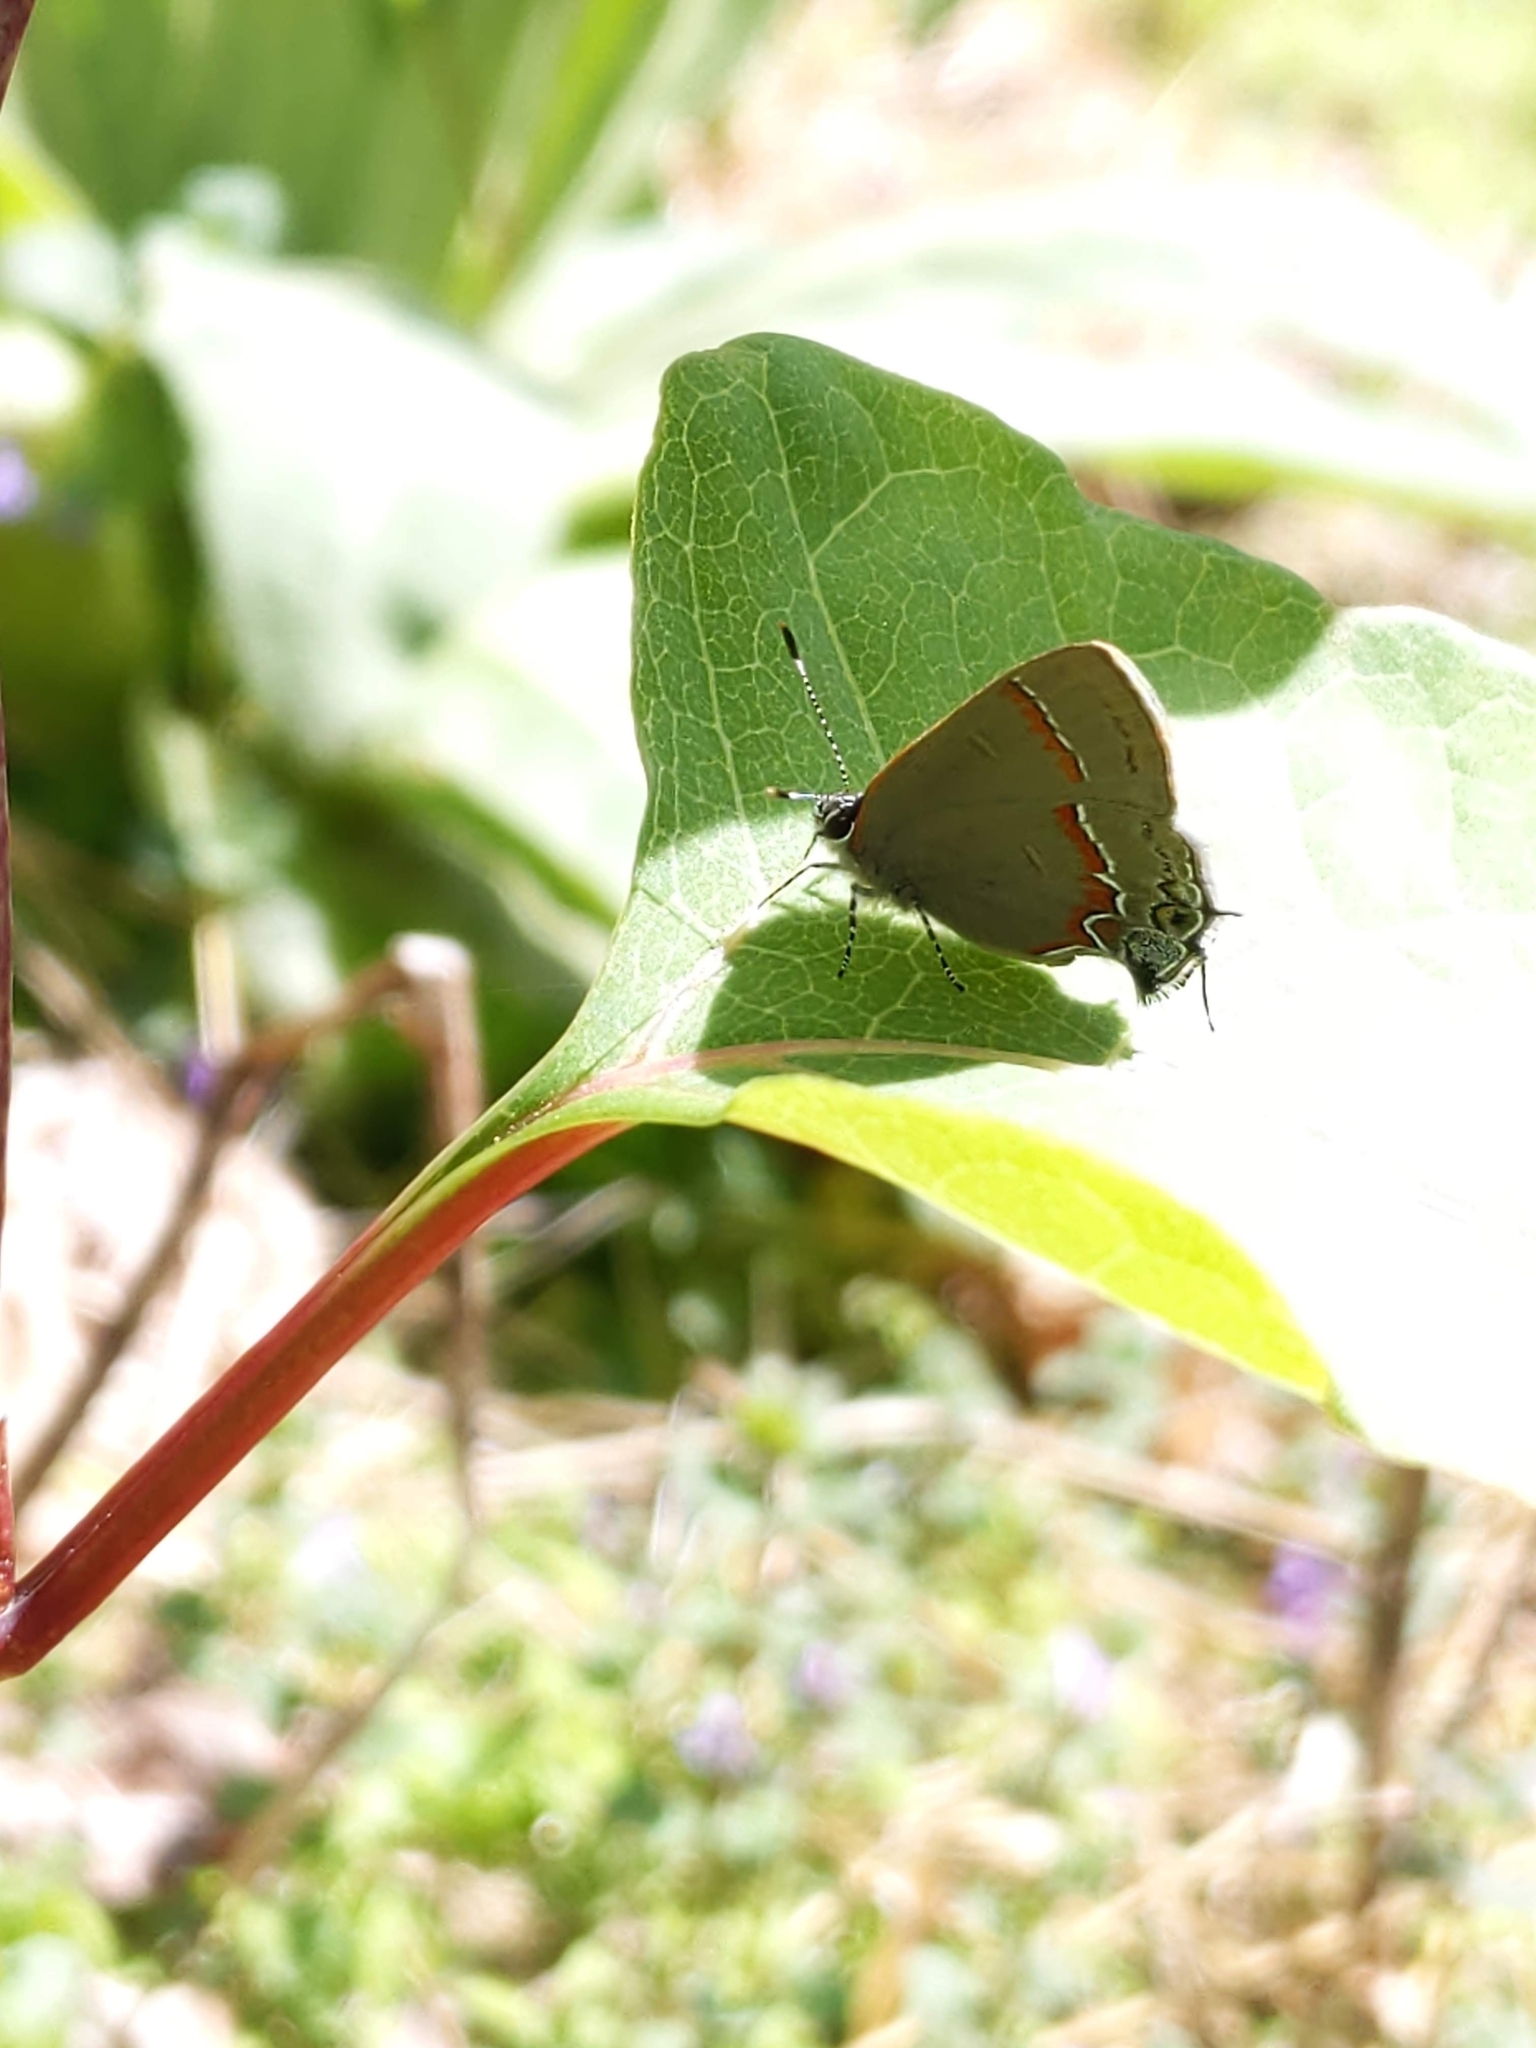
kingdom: Animalia
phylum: Arthropoda
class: Insecta
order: Lepidoptera
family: Lycaenidae
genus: Calycopis
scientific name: Calycopis cecrops
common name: Red-banded hairstreak
